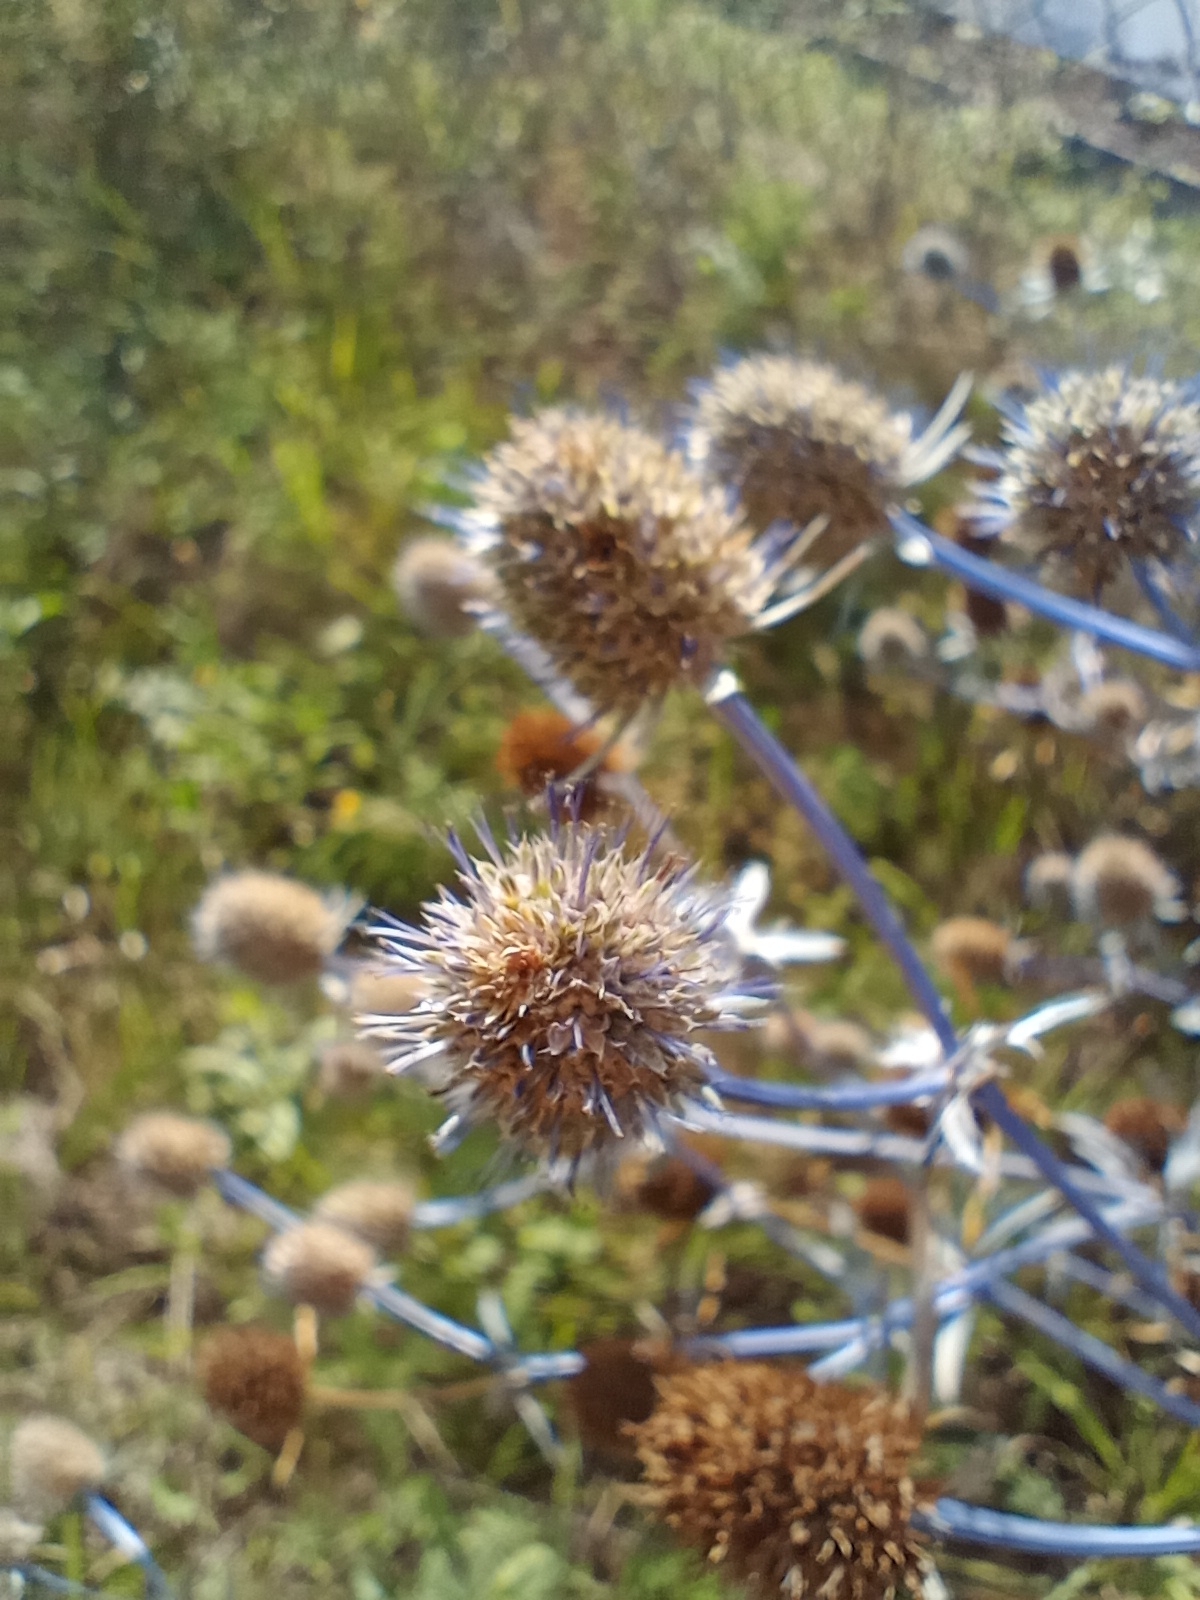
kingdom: Plantae
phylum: Tracheophyta
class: Magnoliopsida
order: Apiales
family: Apiaceae
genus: Eryngium
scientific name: Eryngium planum
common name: Blue eryngo
